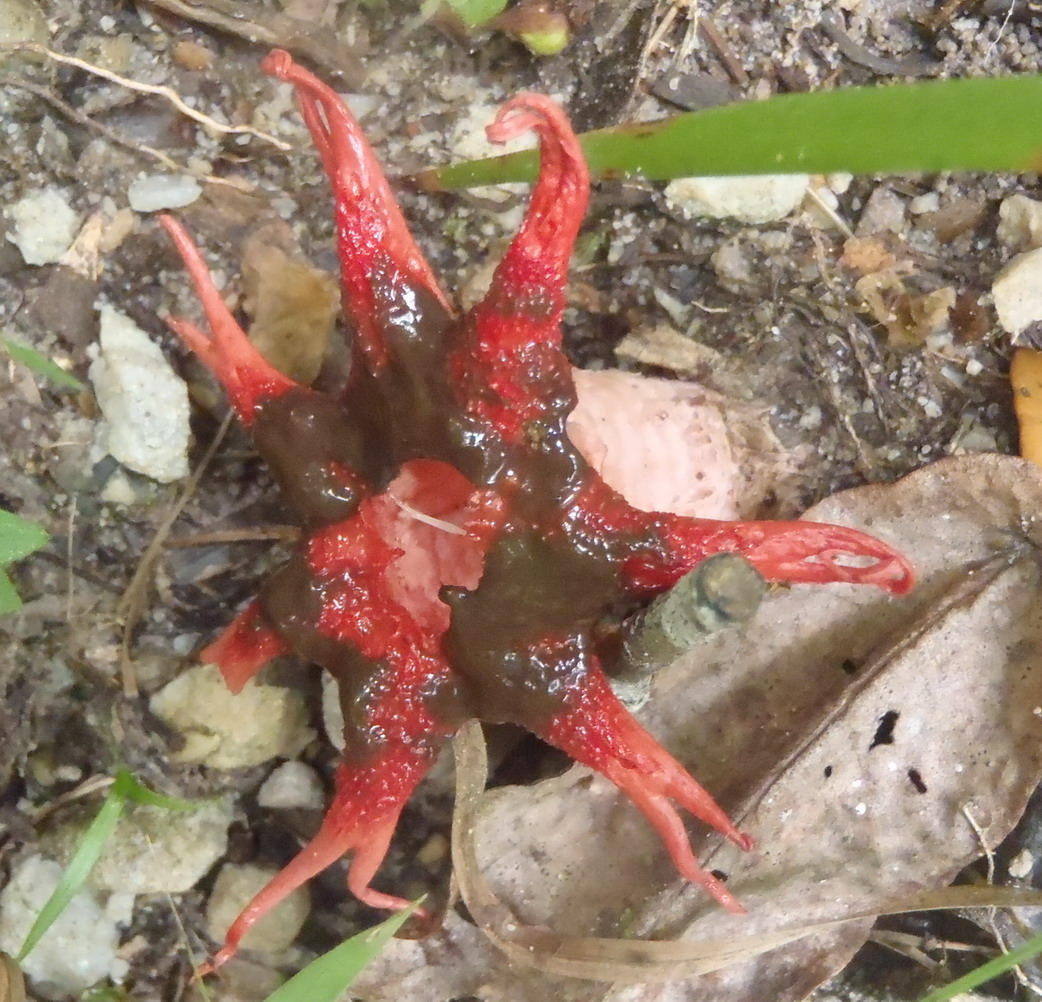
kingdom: Fungi
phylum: Basidiomycota
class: Agaricomycetes
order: Phallales
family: Phallaceae
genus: Aseroe
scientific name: Aseroe rubra
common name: Starfish fungus
